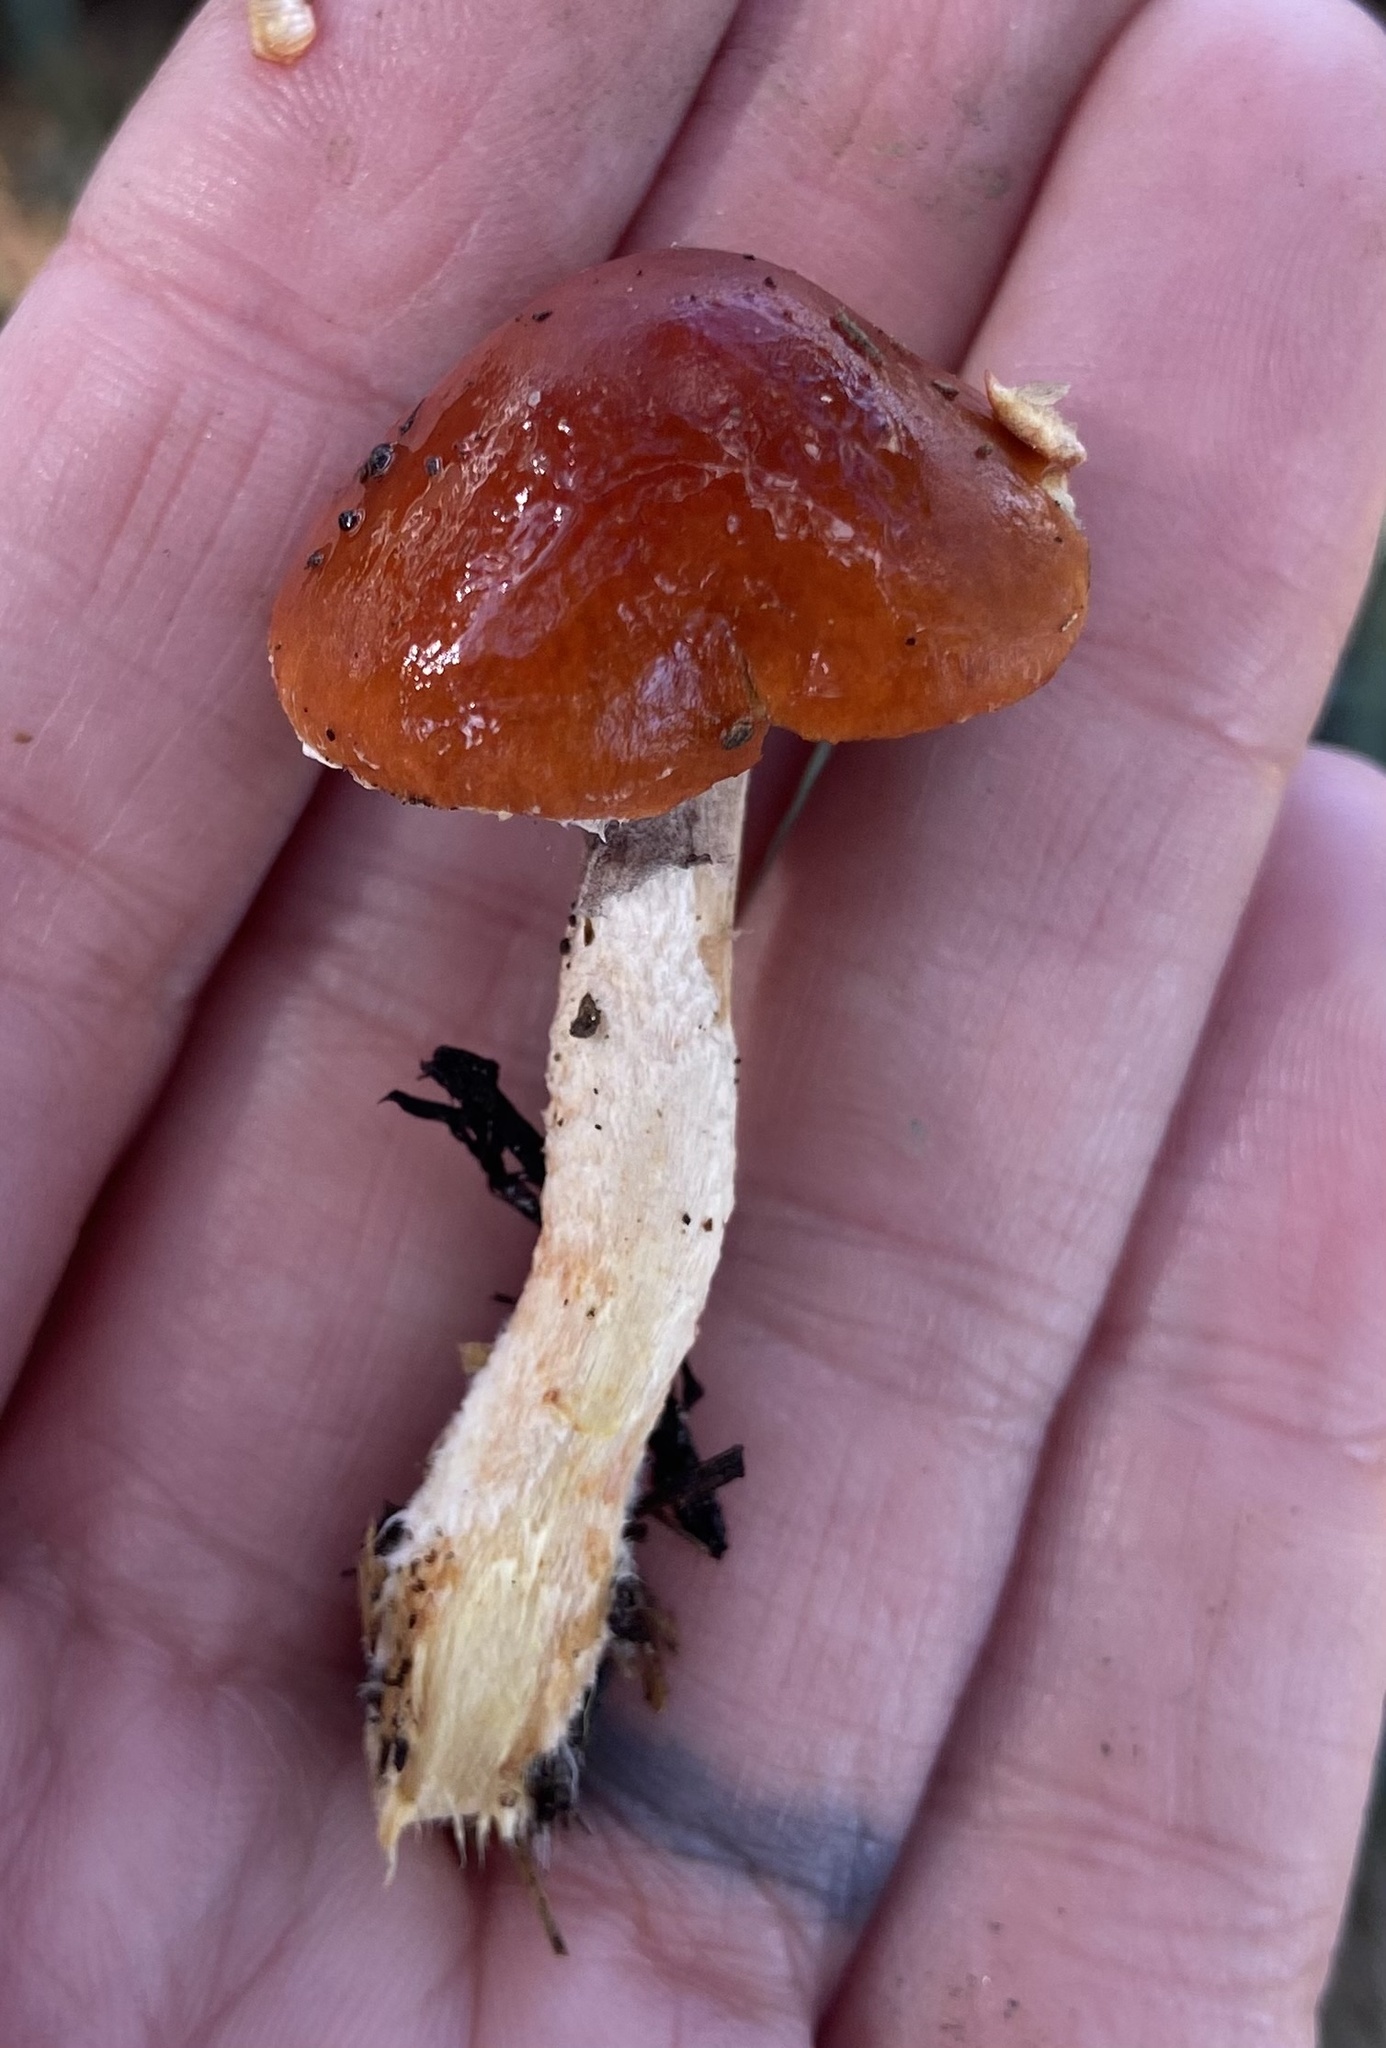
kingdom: Fungi
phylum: Basidiomycota
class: Agaricomycetes
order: Agaricales
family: Strophariaceae
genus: Leratiomyces
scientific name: Leratiomyces ceres
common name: Redlead roundhead
